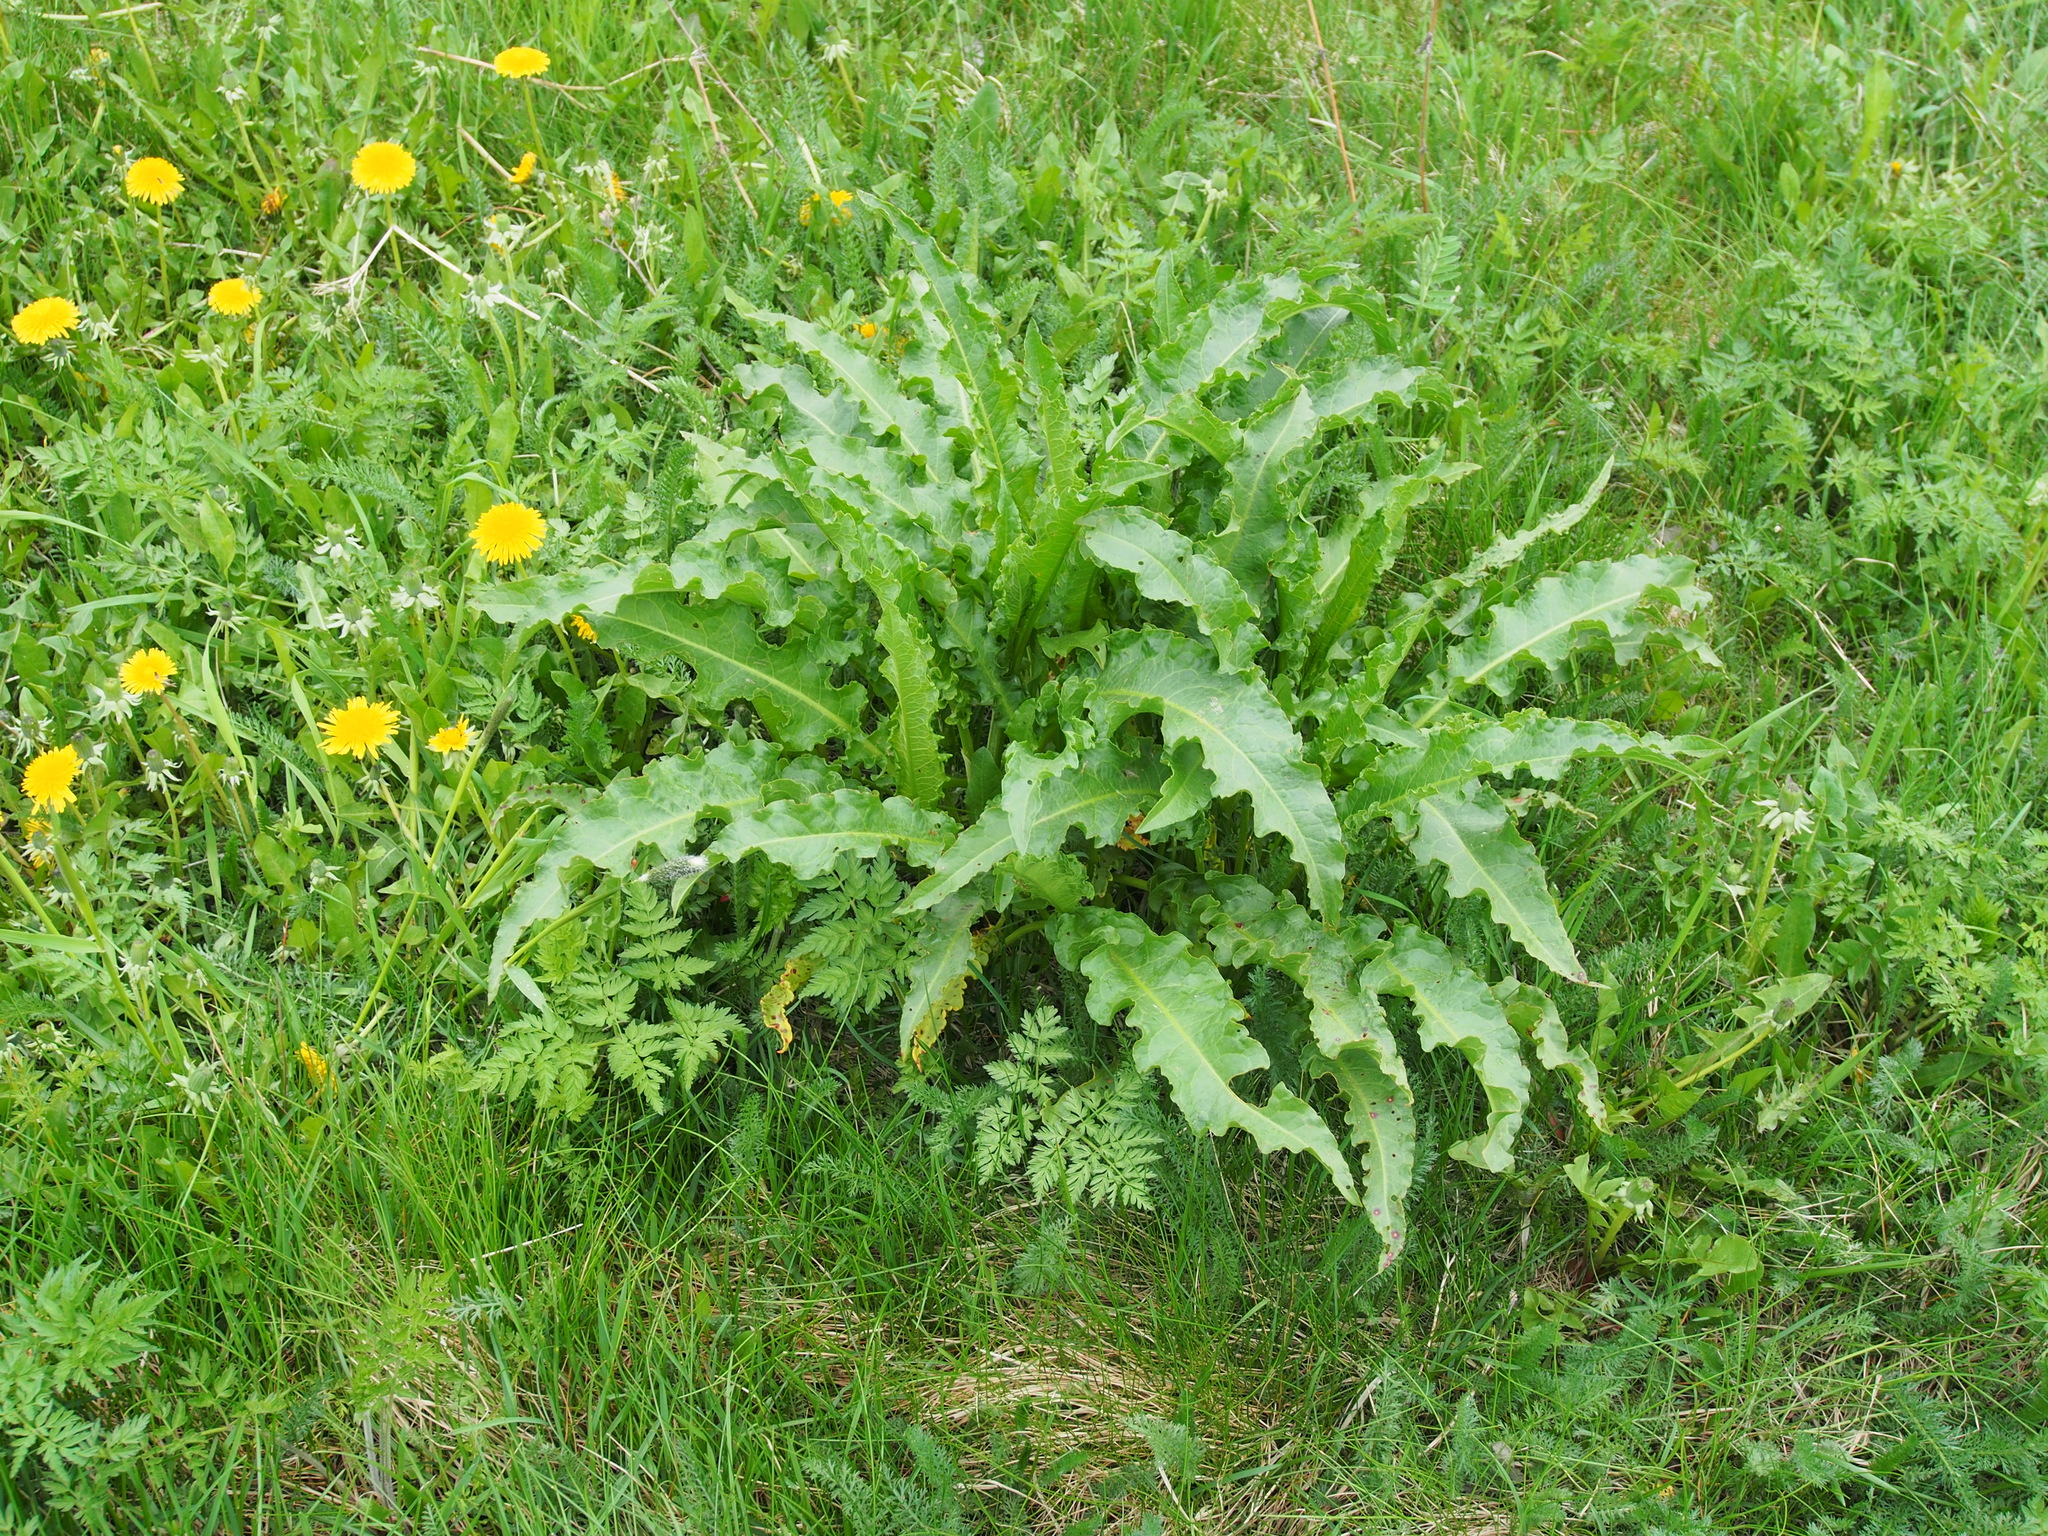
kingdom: Plantae
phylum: Tracheophyta
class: Magnoliopsida
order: Caryophyllales
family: Polygonaceae
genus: Rumex
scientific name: Rumex crispus
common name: Curled dock
